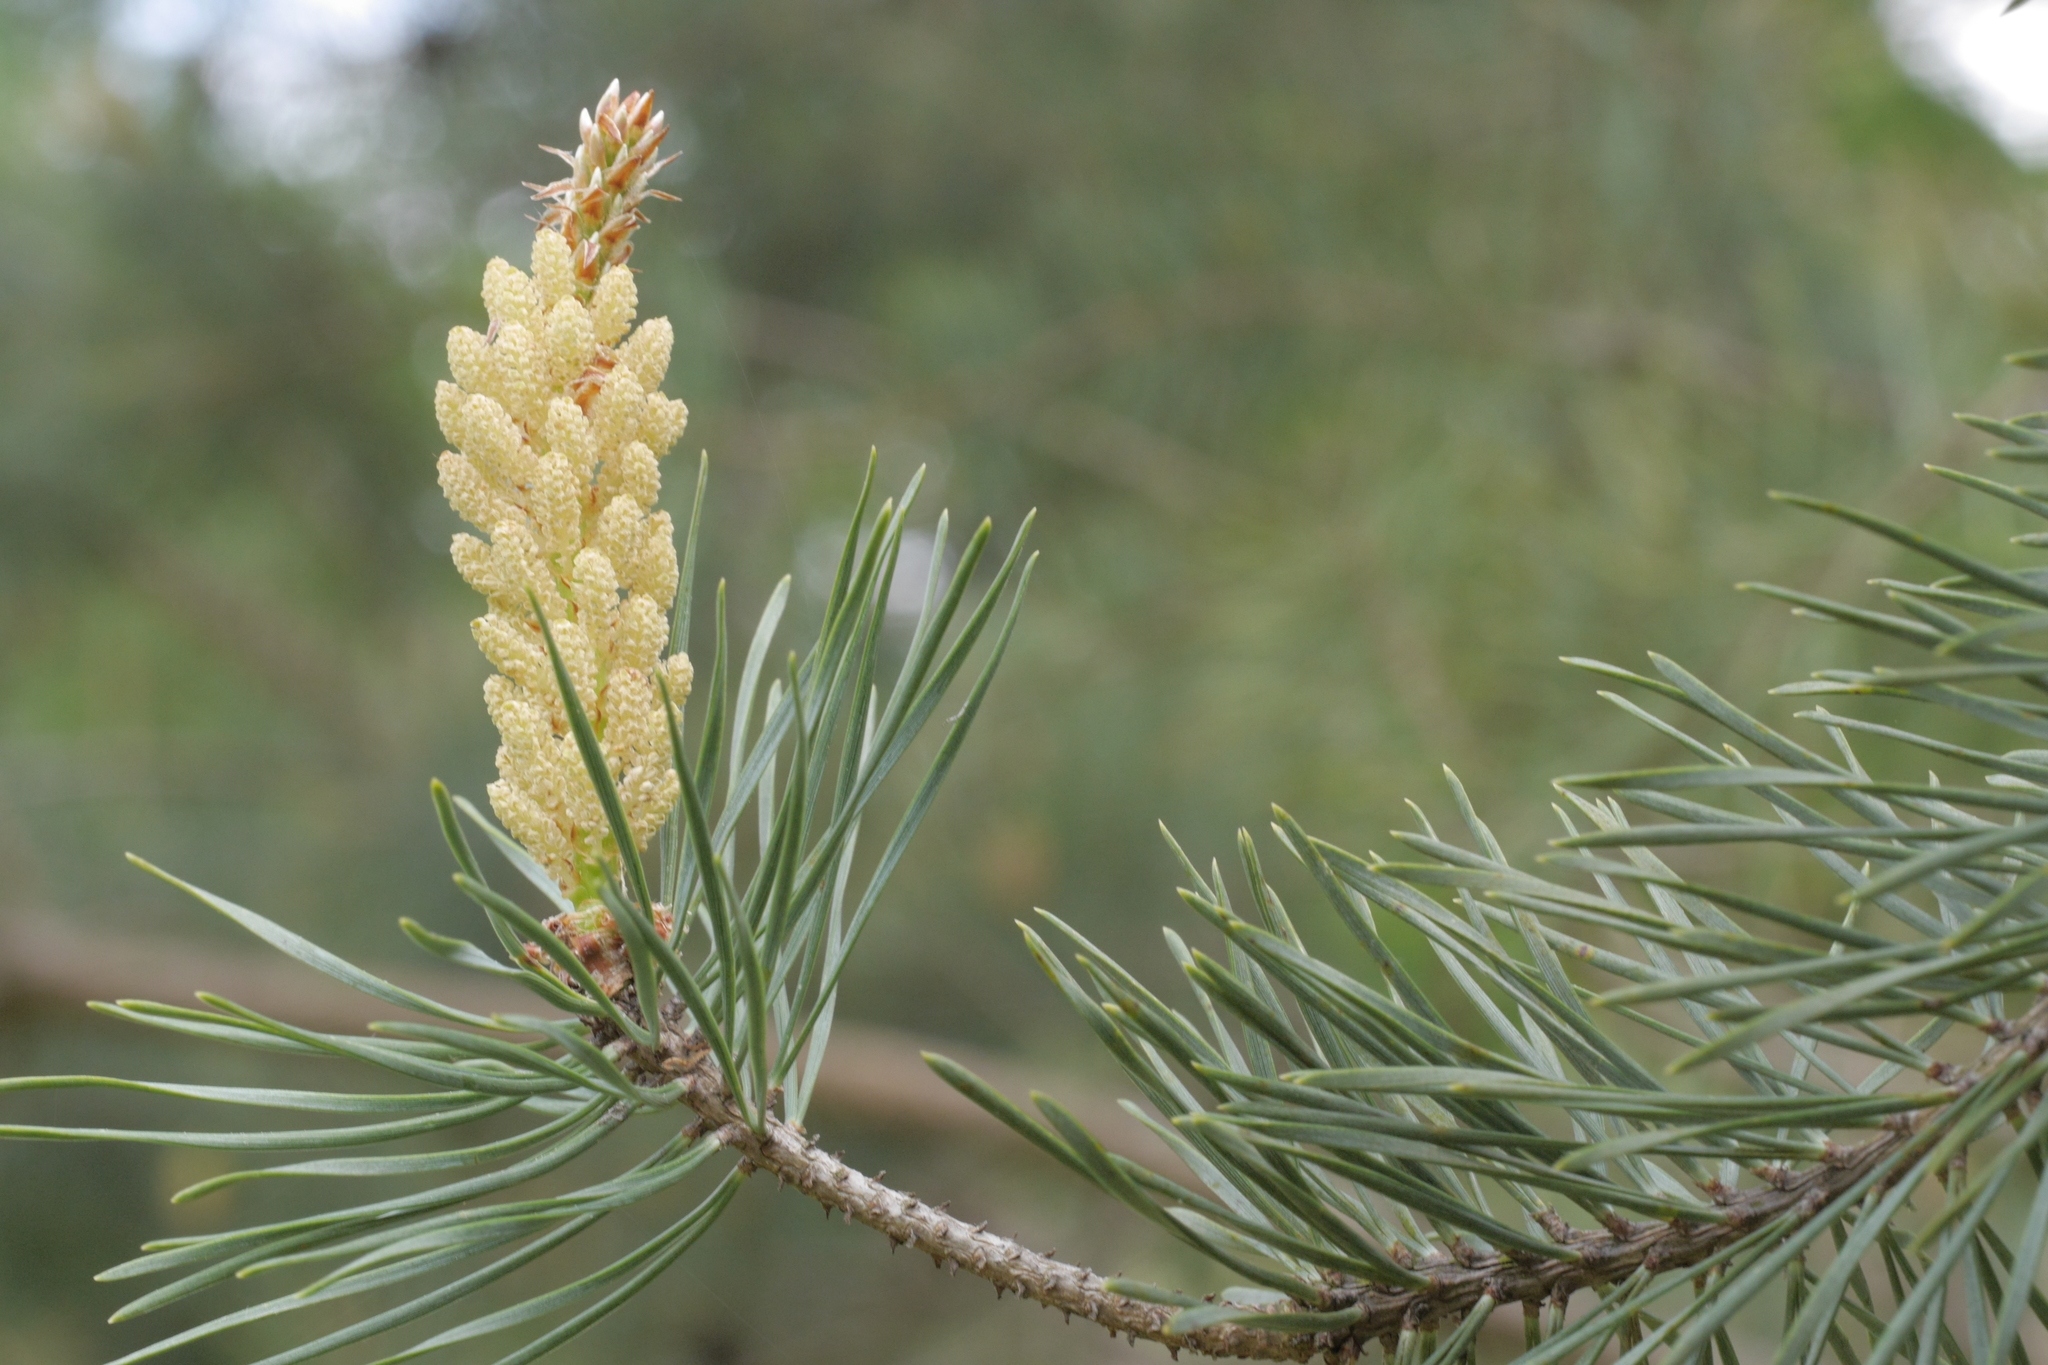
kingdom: Plantae
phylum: Tracheophyta
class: Pinopsida
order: Pinales
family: Pinaceae
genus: Pinus
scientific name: Pinus sylvestris
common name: Scots pine
